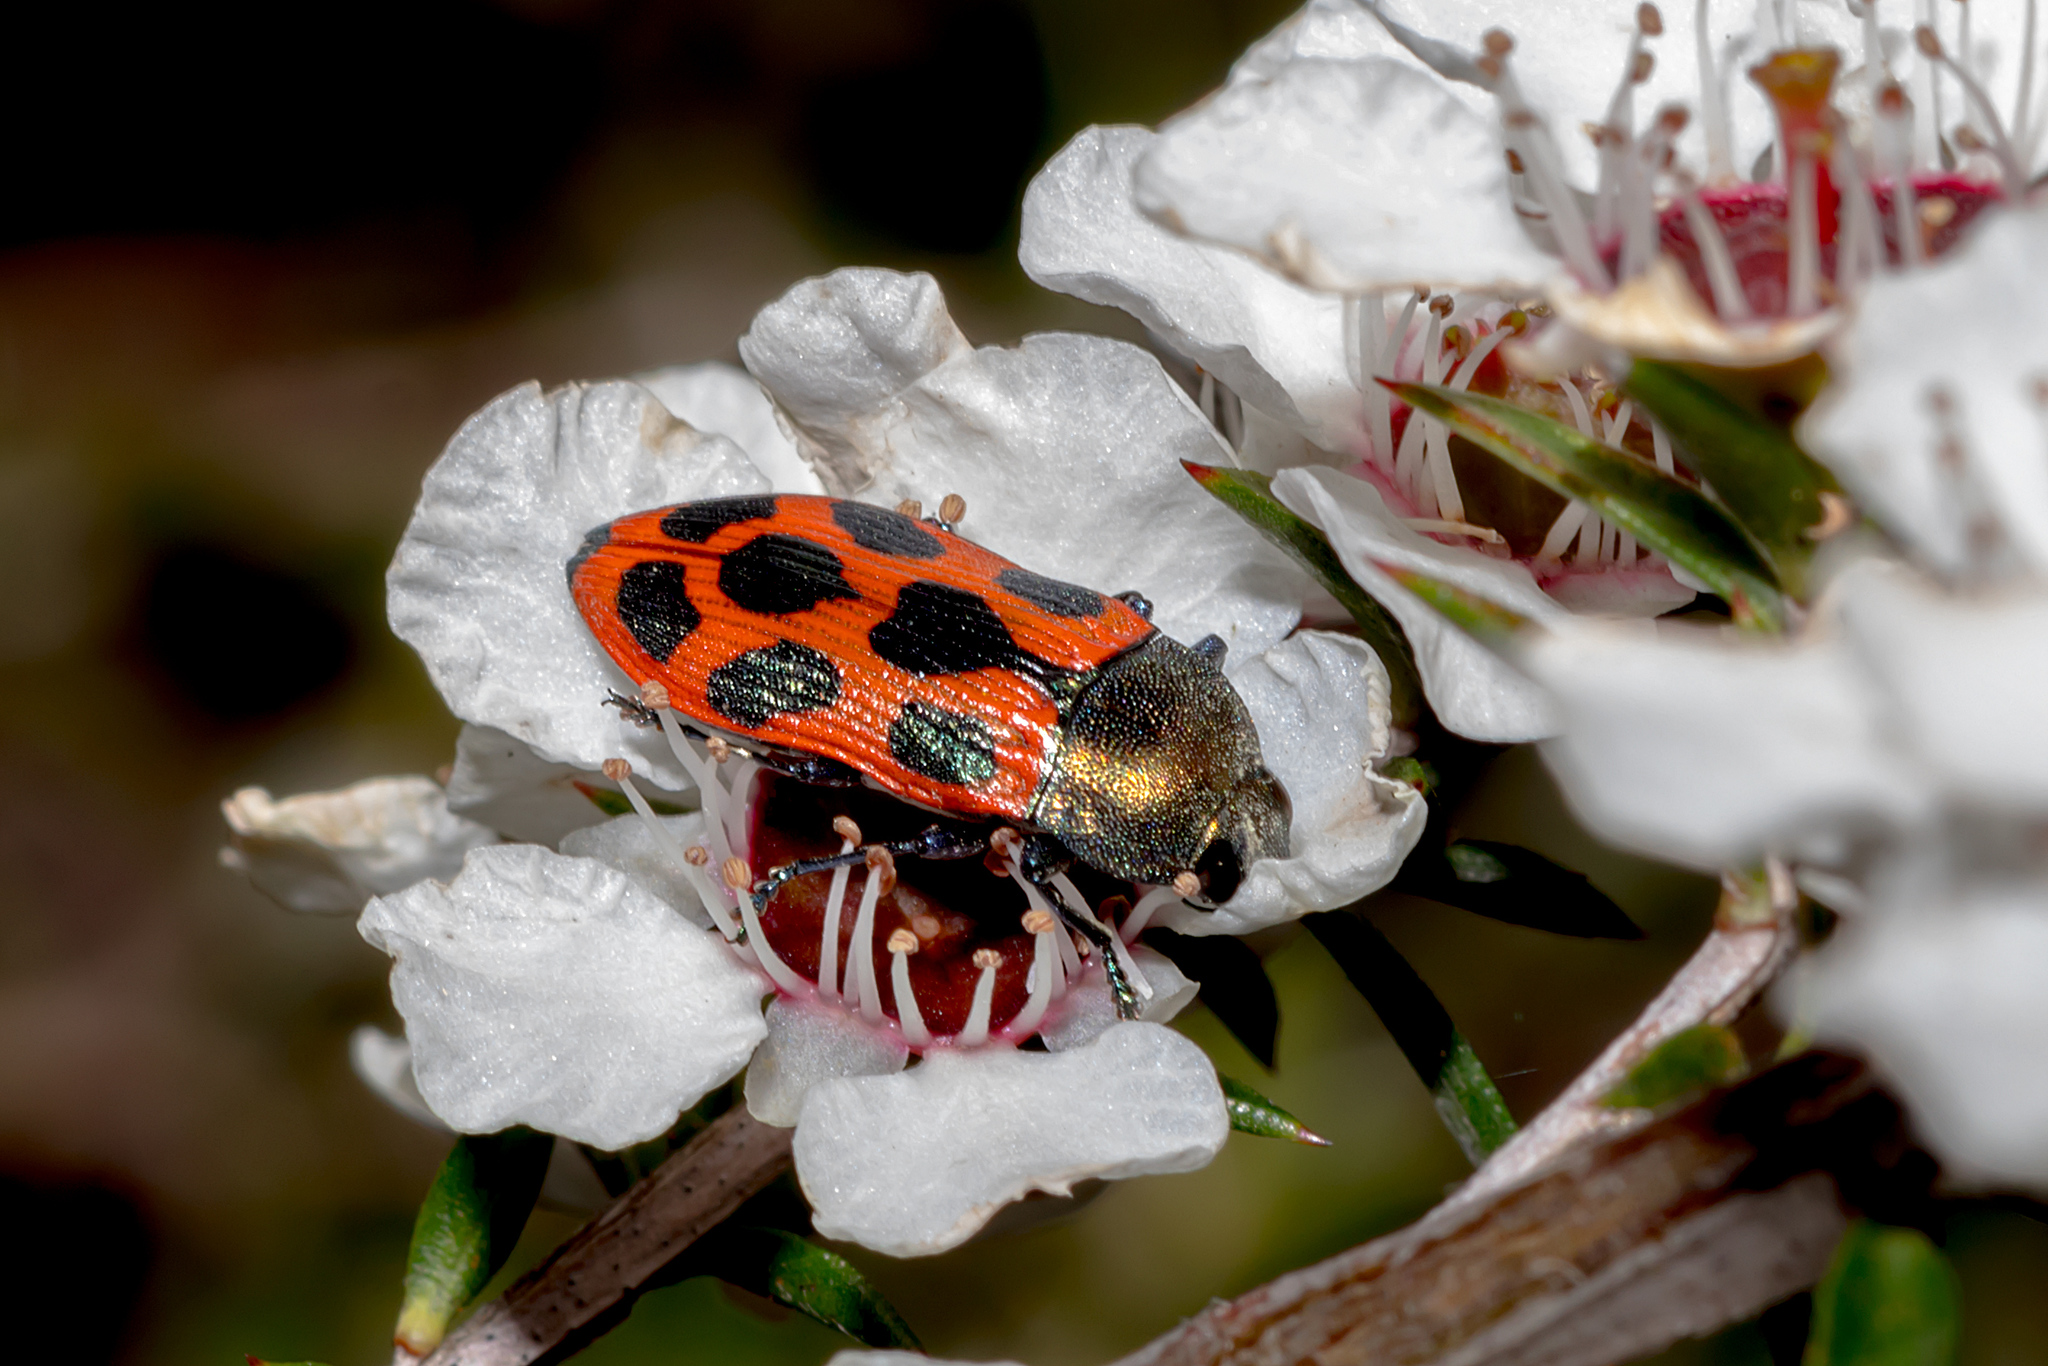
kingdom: Animalia
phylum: Arthropoda
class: Insecta
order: Coleoptera
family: Buprestidae
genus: Castiarina
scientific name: Castiarina octomaculata
